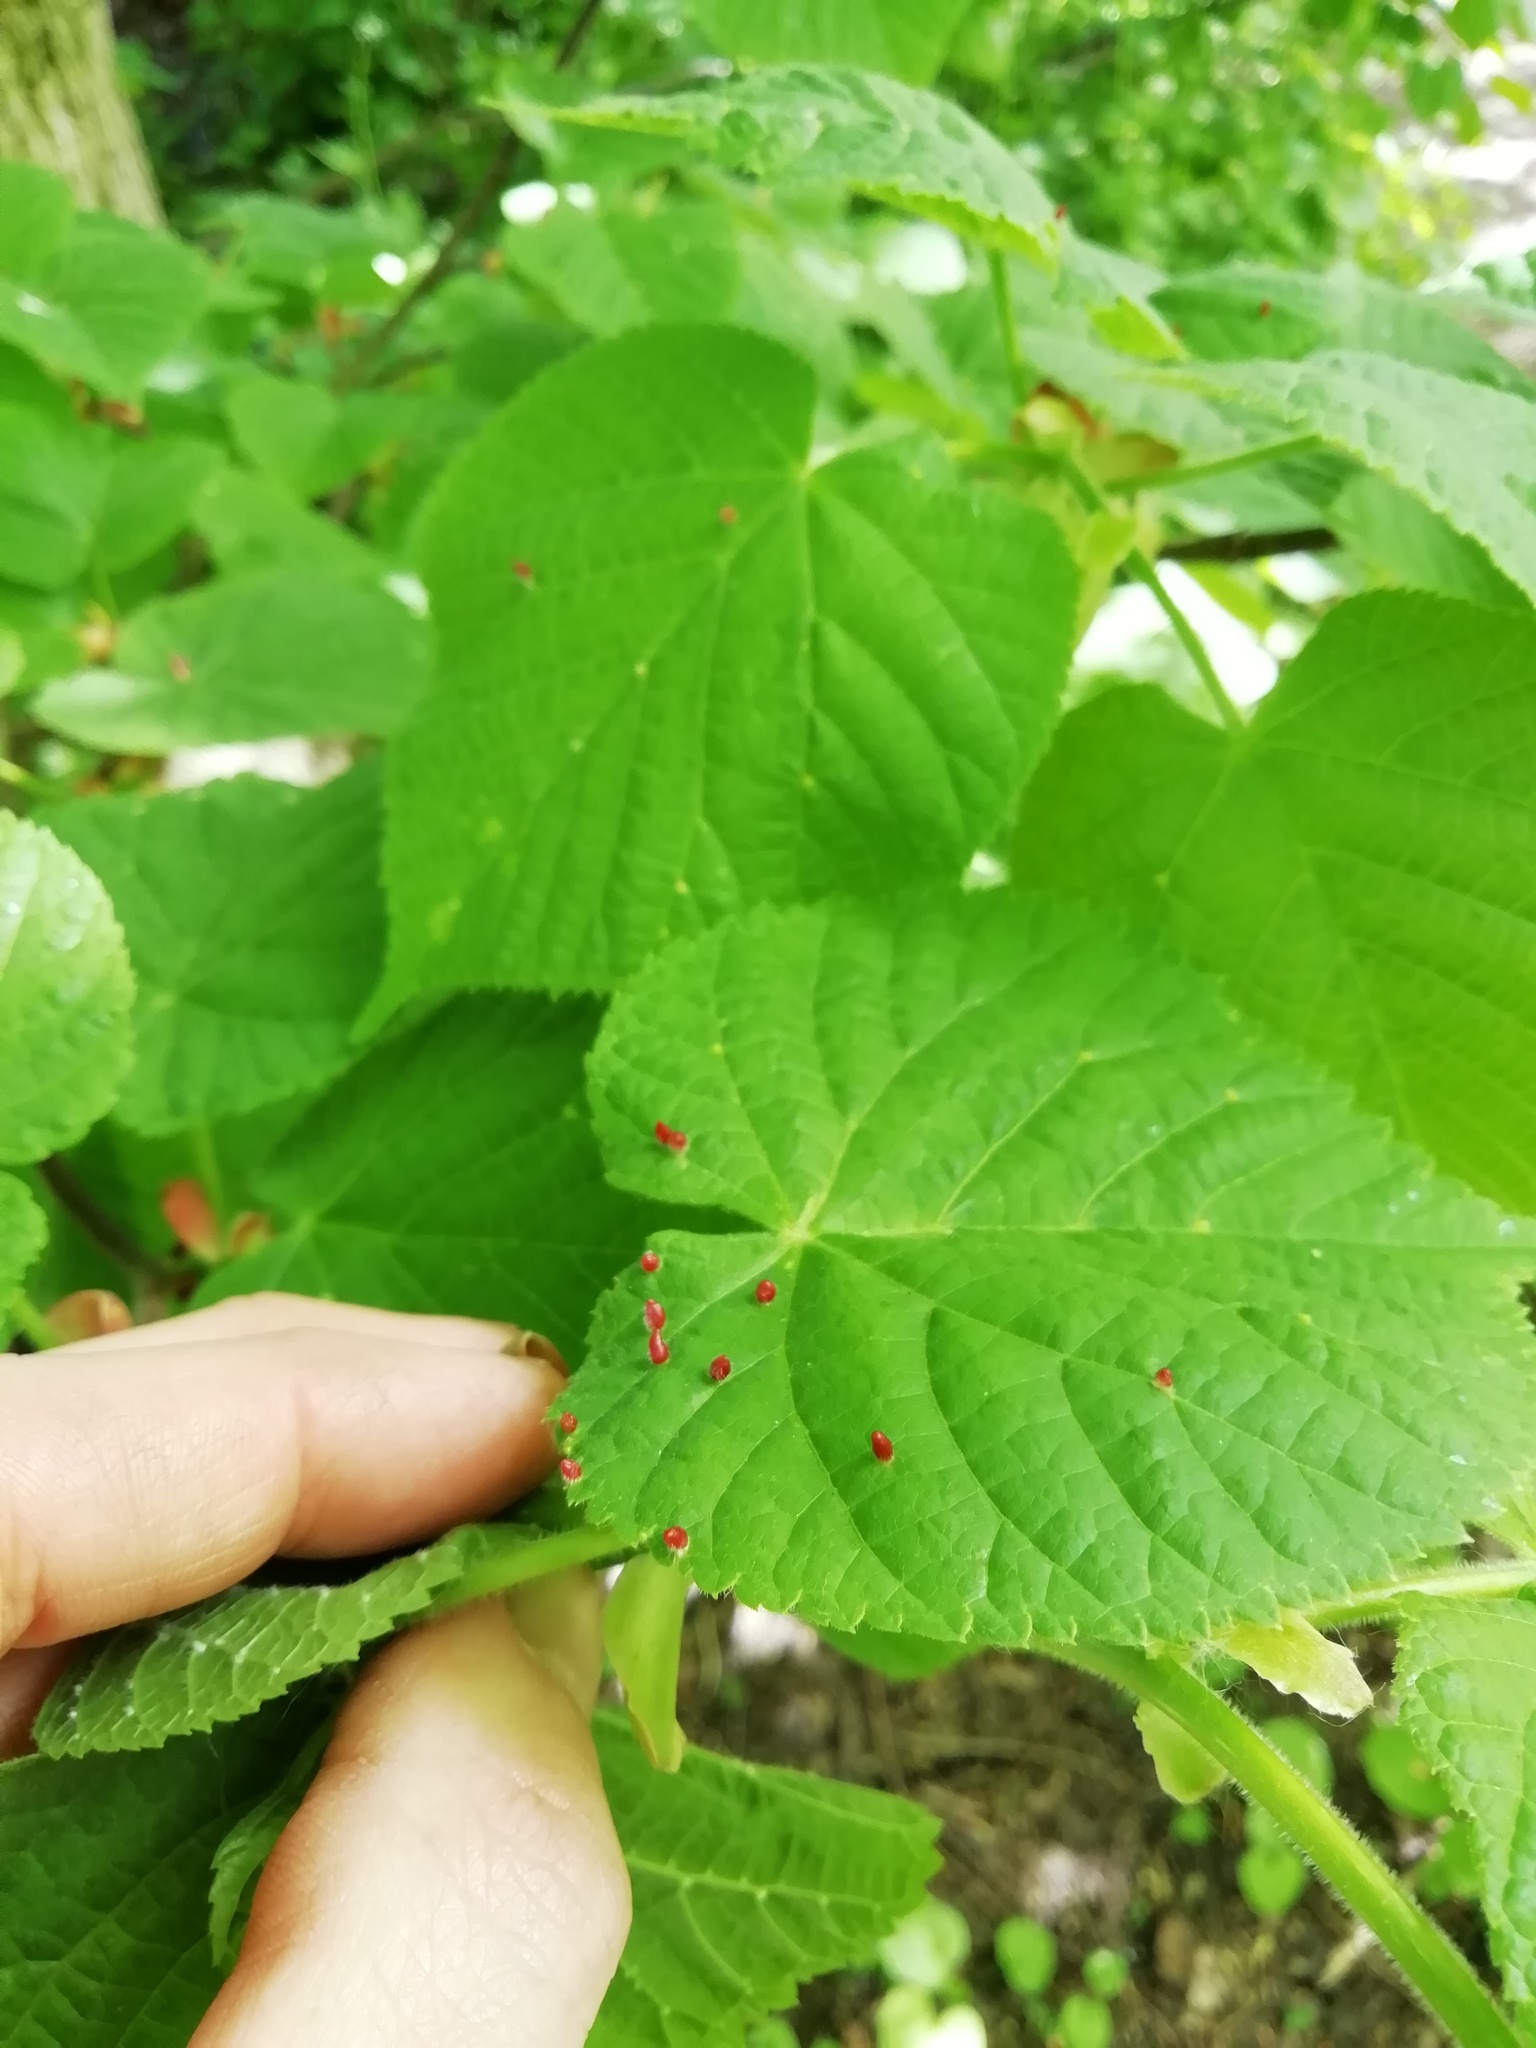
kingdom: Animalia
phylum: Arthropoda
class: Arachnida
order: Trombidiformes
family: Eriophyidae
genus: Eriophyes
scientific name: Eriophyes tiliae
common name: Red nail gall mite
